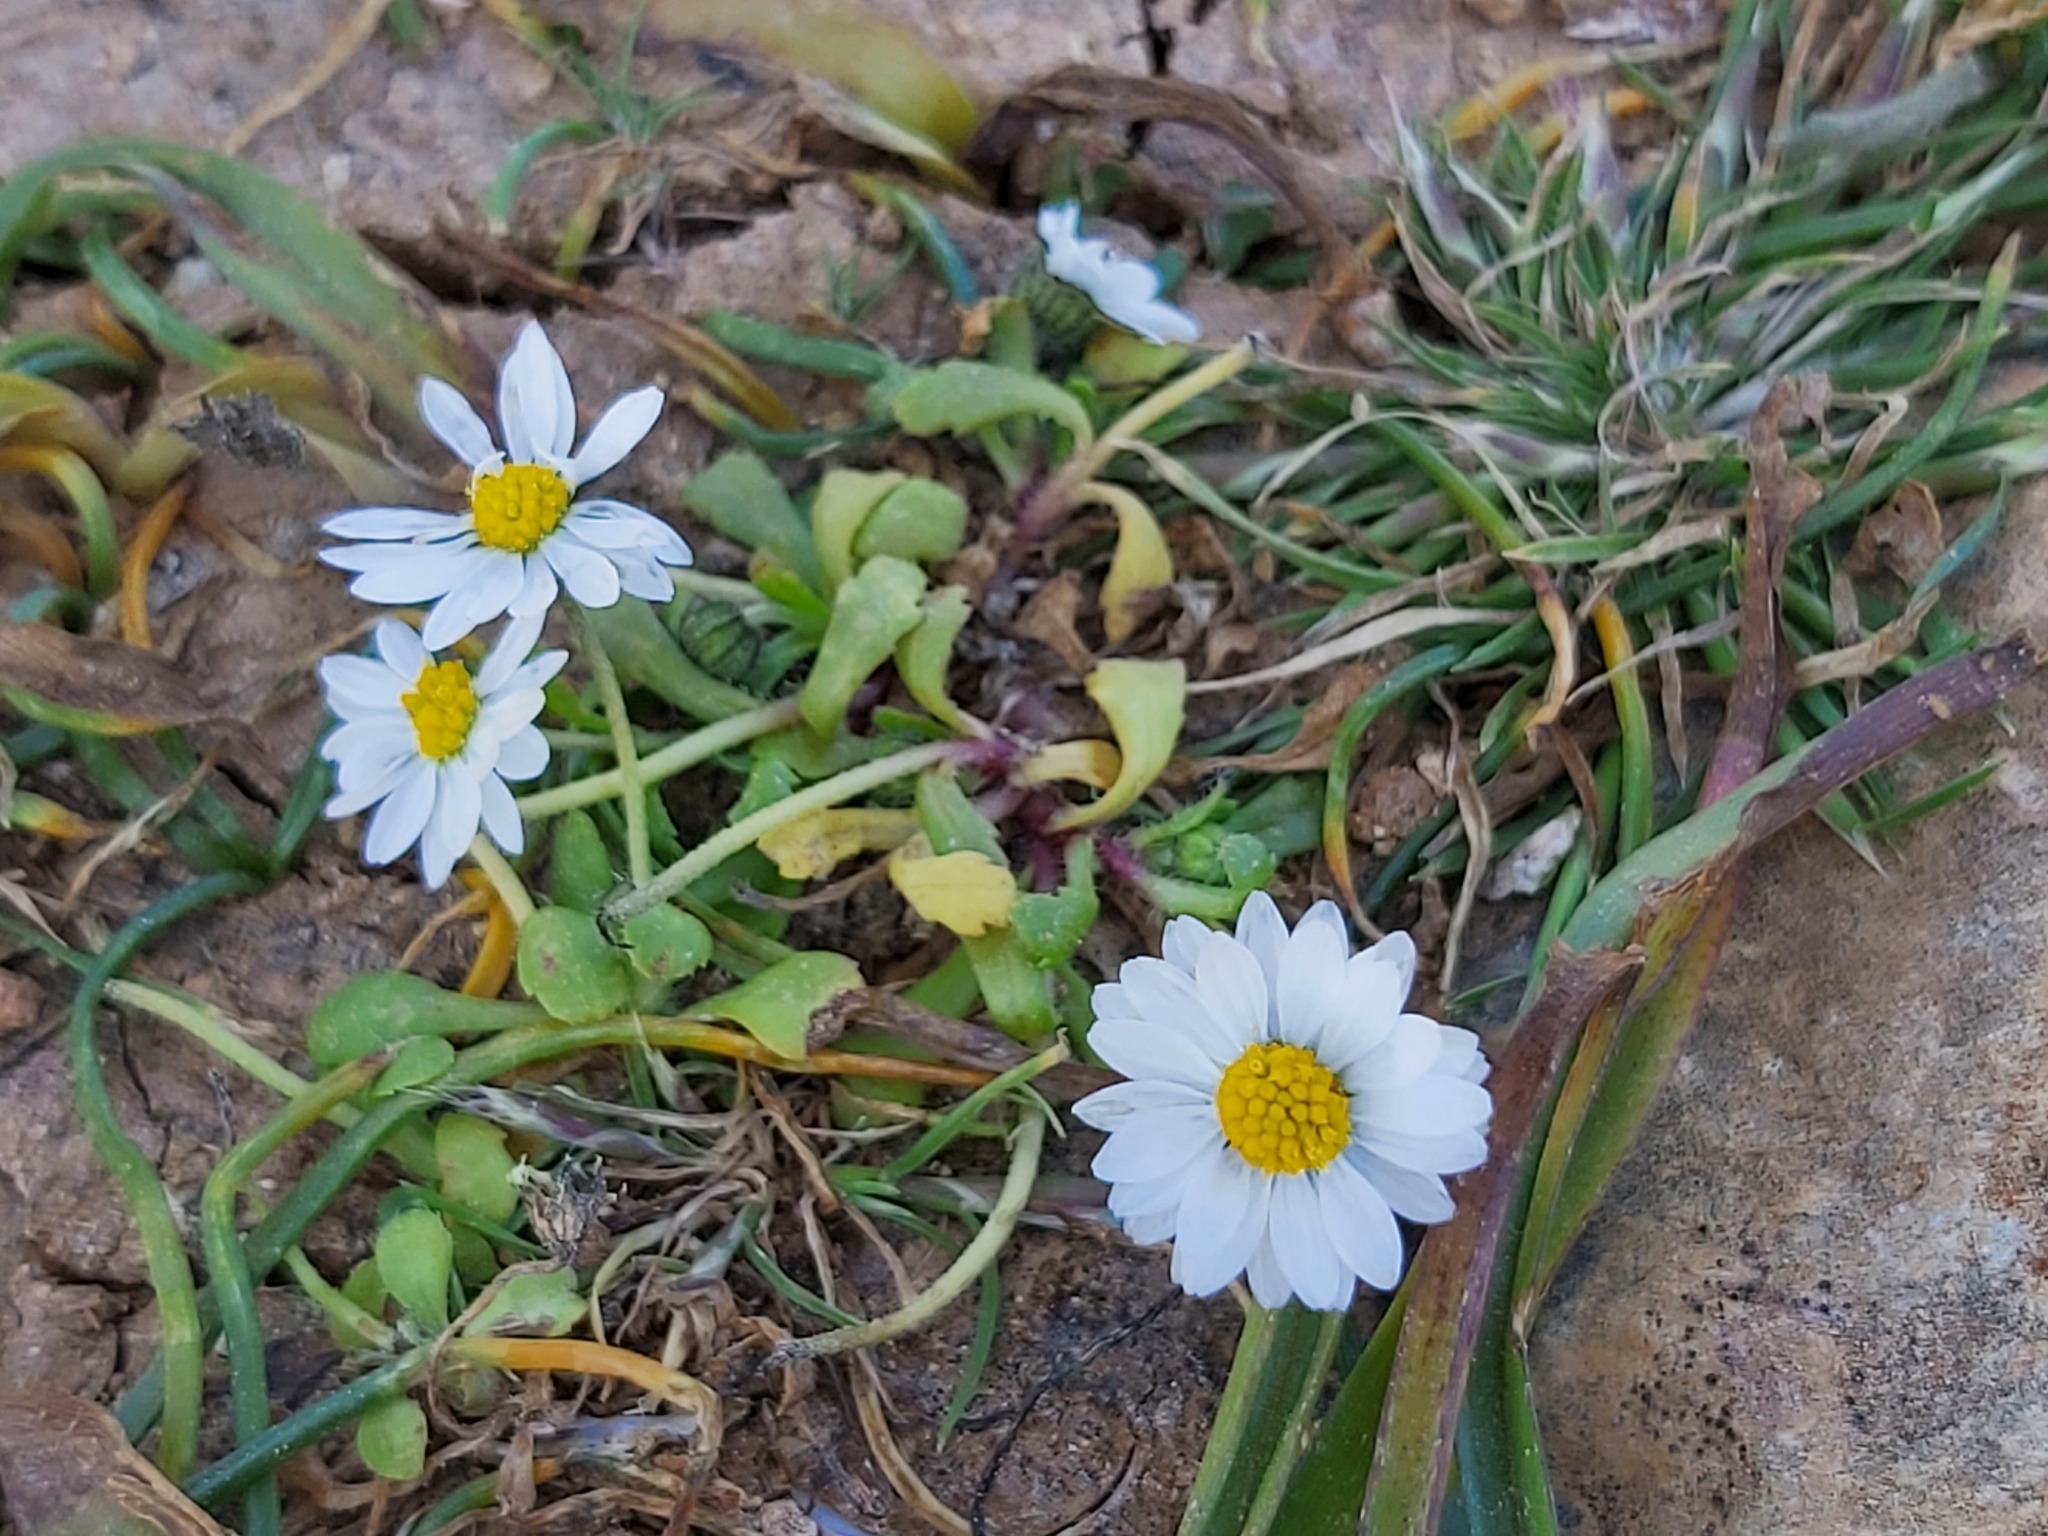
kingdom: Plantae
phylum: Tracheophyta
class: Magnoliopsida
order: Asterales
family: Asteraceae
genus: Bellis
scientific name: Bellis annua
